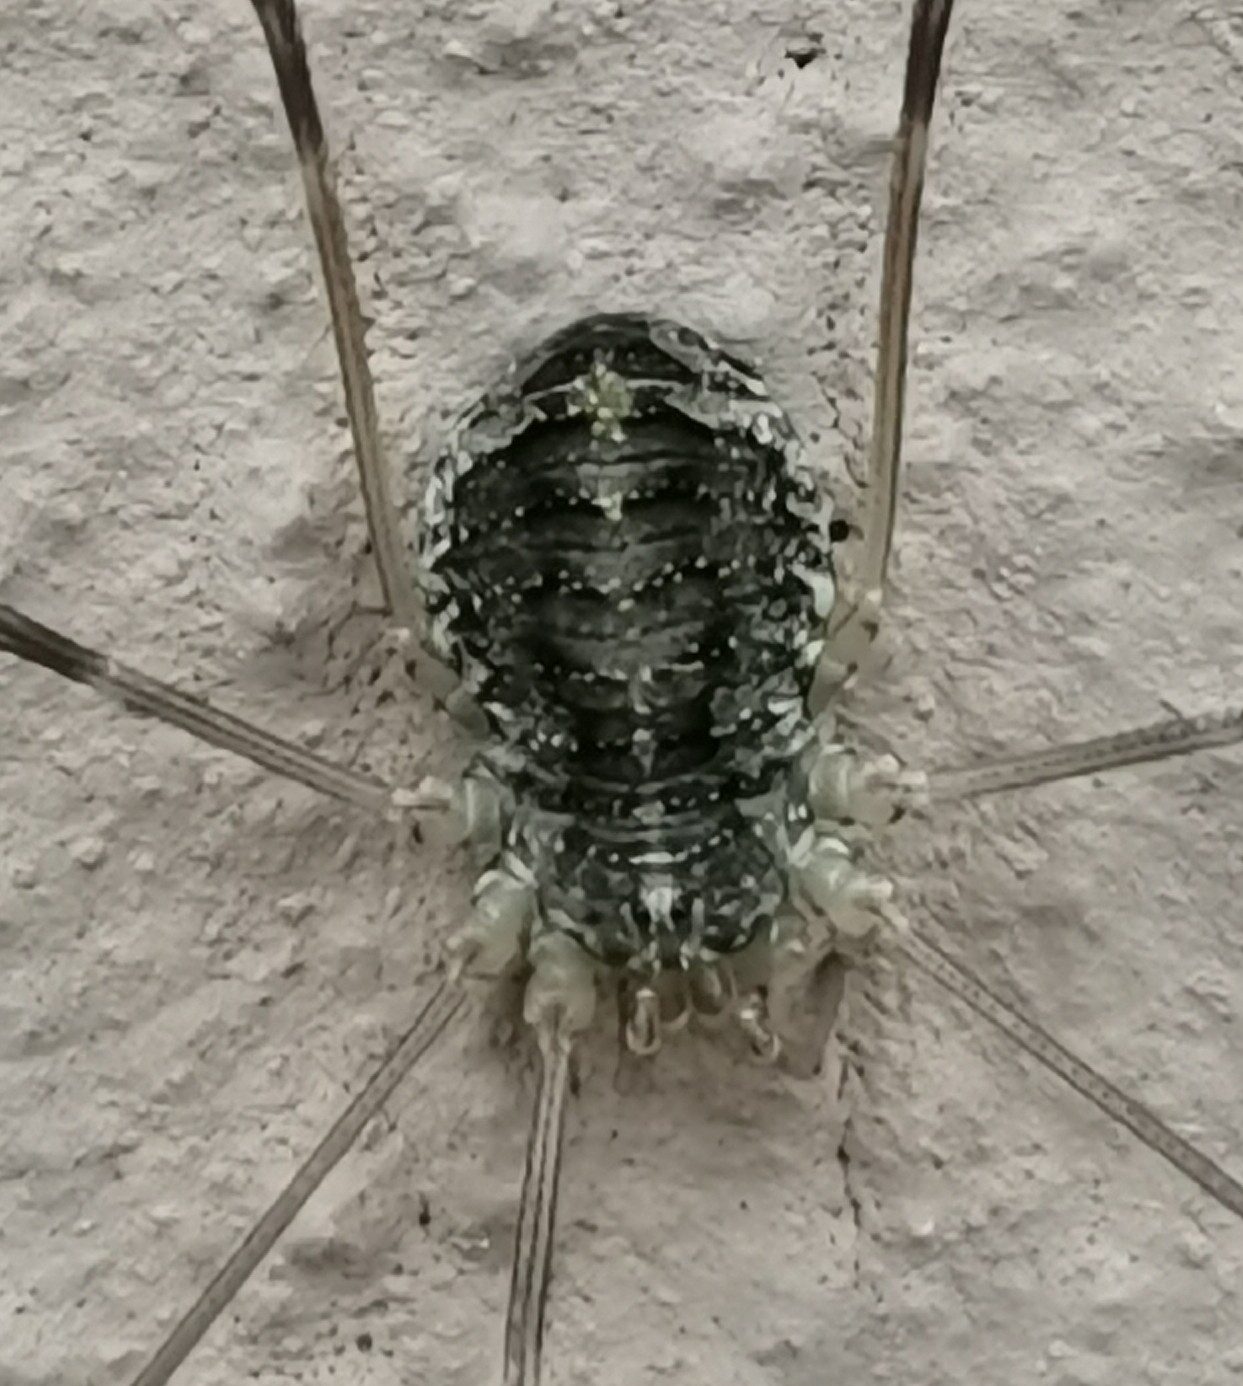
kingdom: Animalia
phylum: Arthropoda
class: Arachnida
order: Opiliones
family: Phalangiidae
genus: Opilio
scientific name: Opilio parietinus
